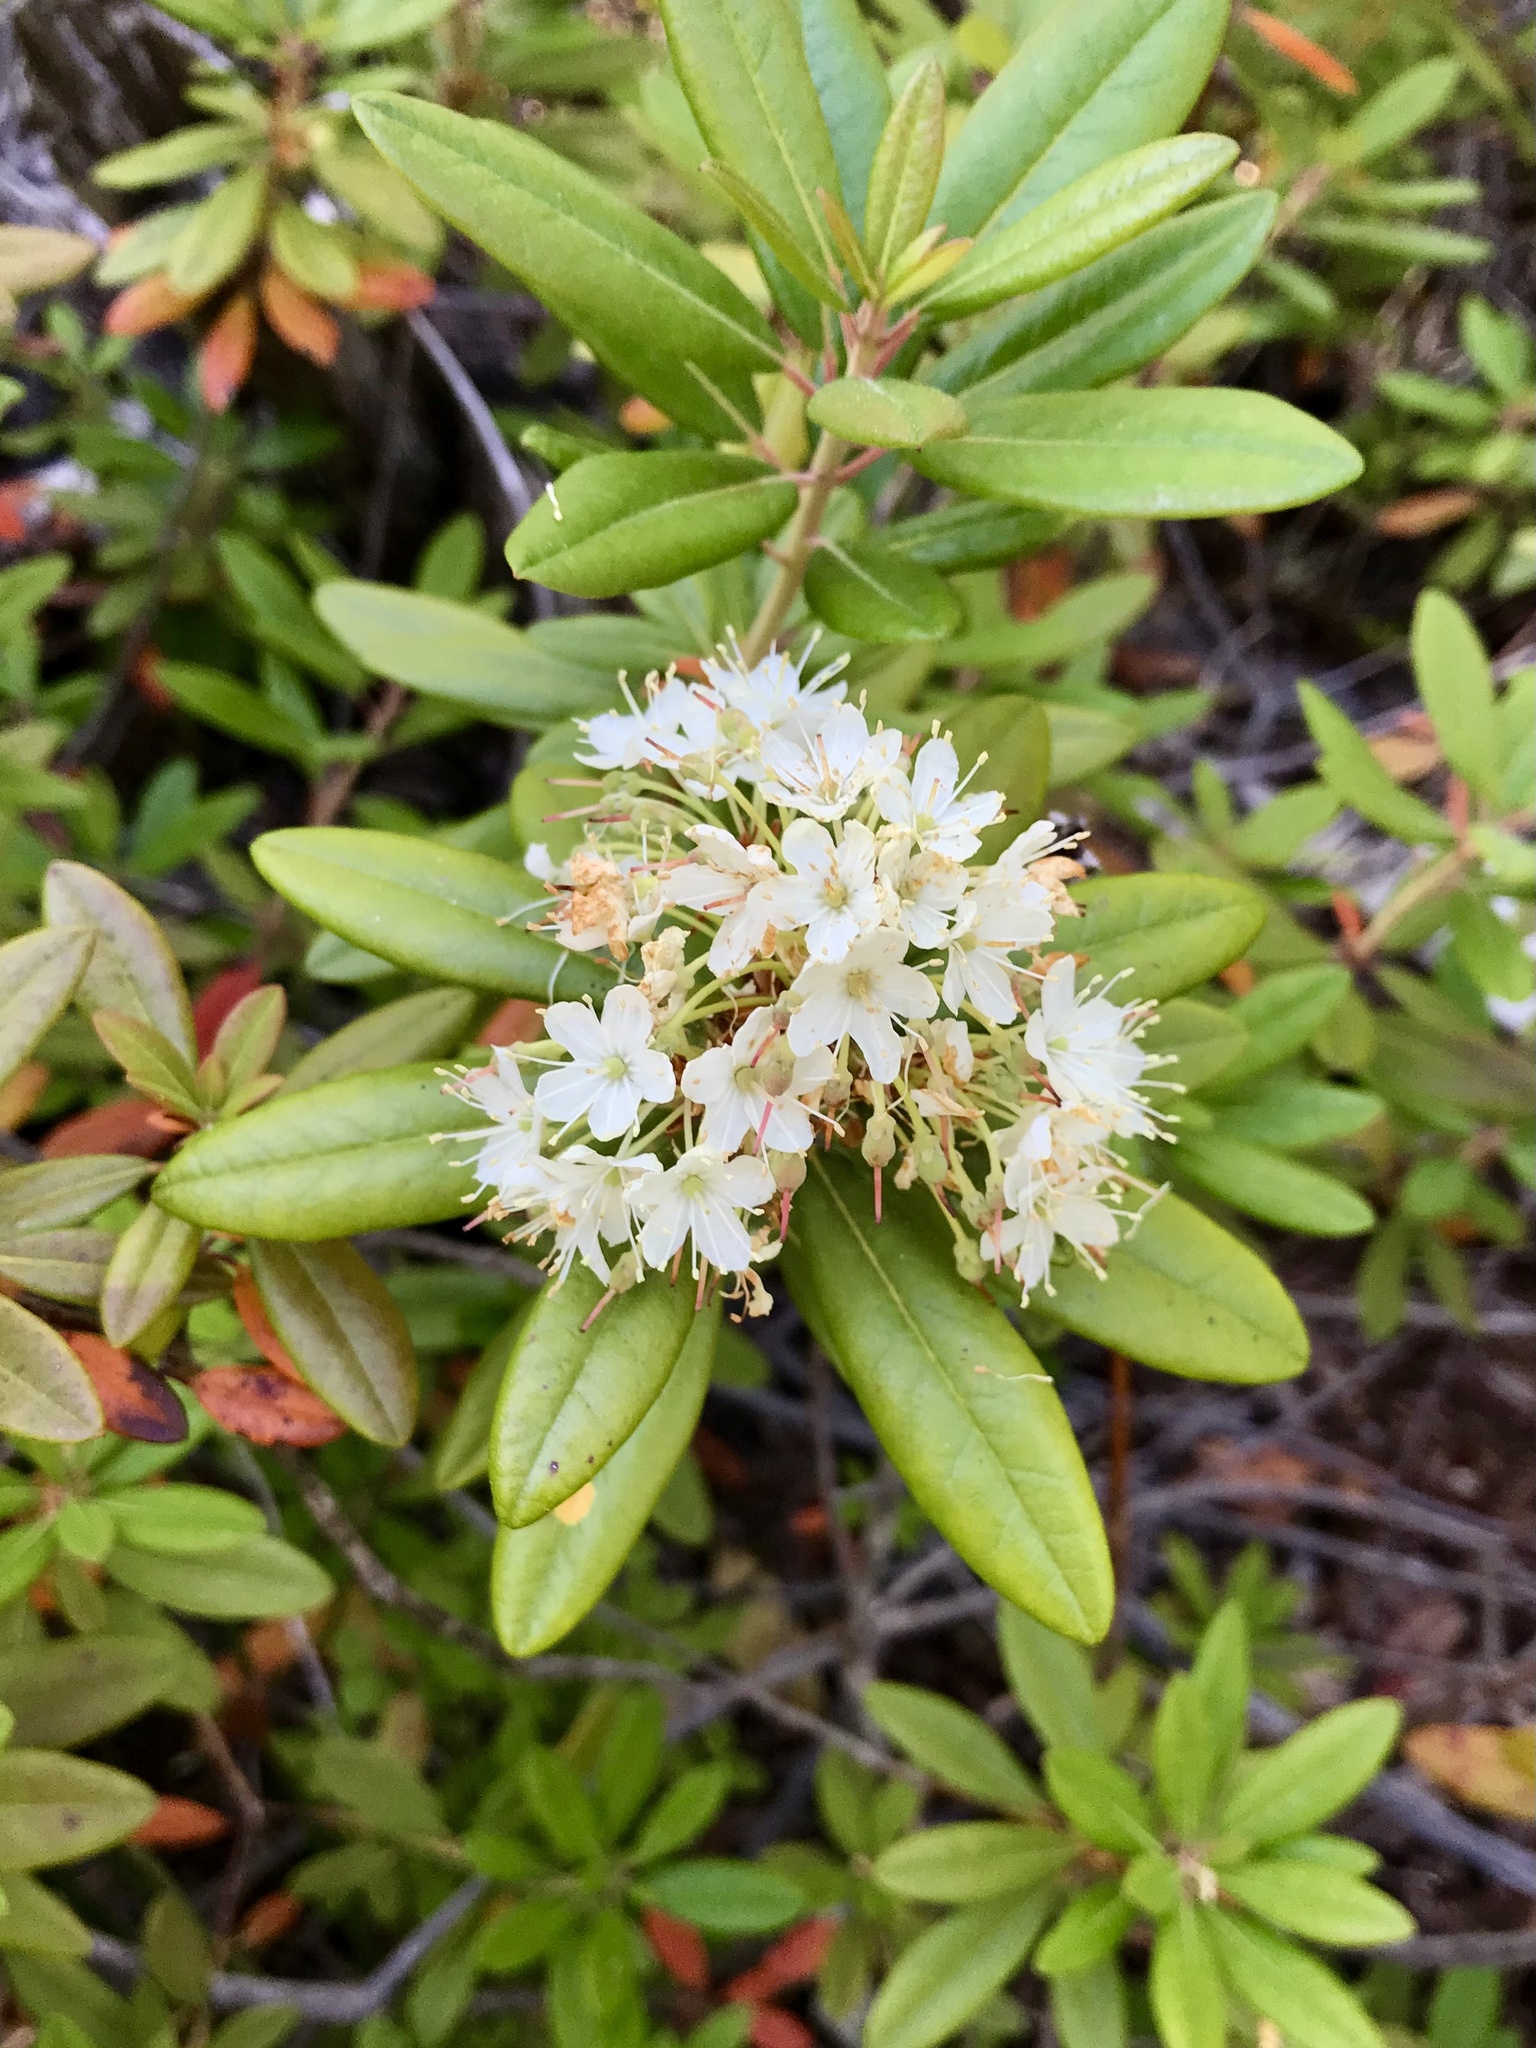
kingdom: Plantae
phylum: Tracheophyta
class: Magnoliopsida
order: Ericales
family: Ericaceae
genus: Rhododendron
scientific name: Rhododendron columbianum
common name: Western labrador tea
